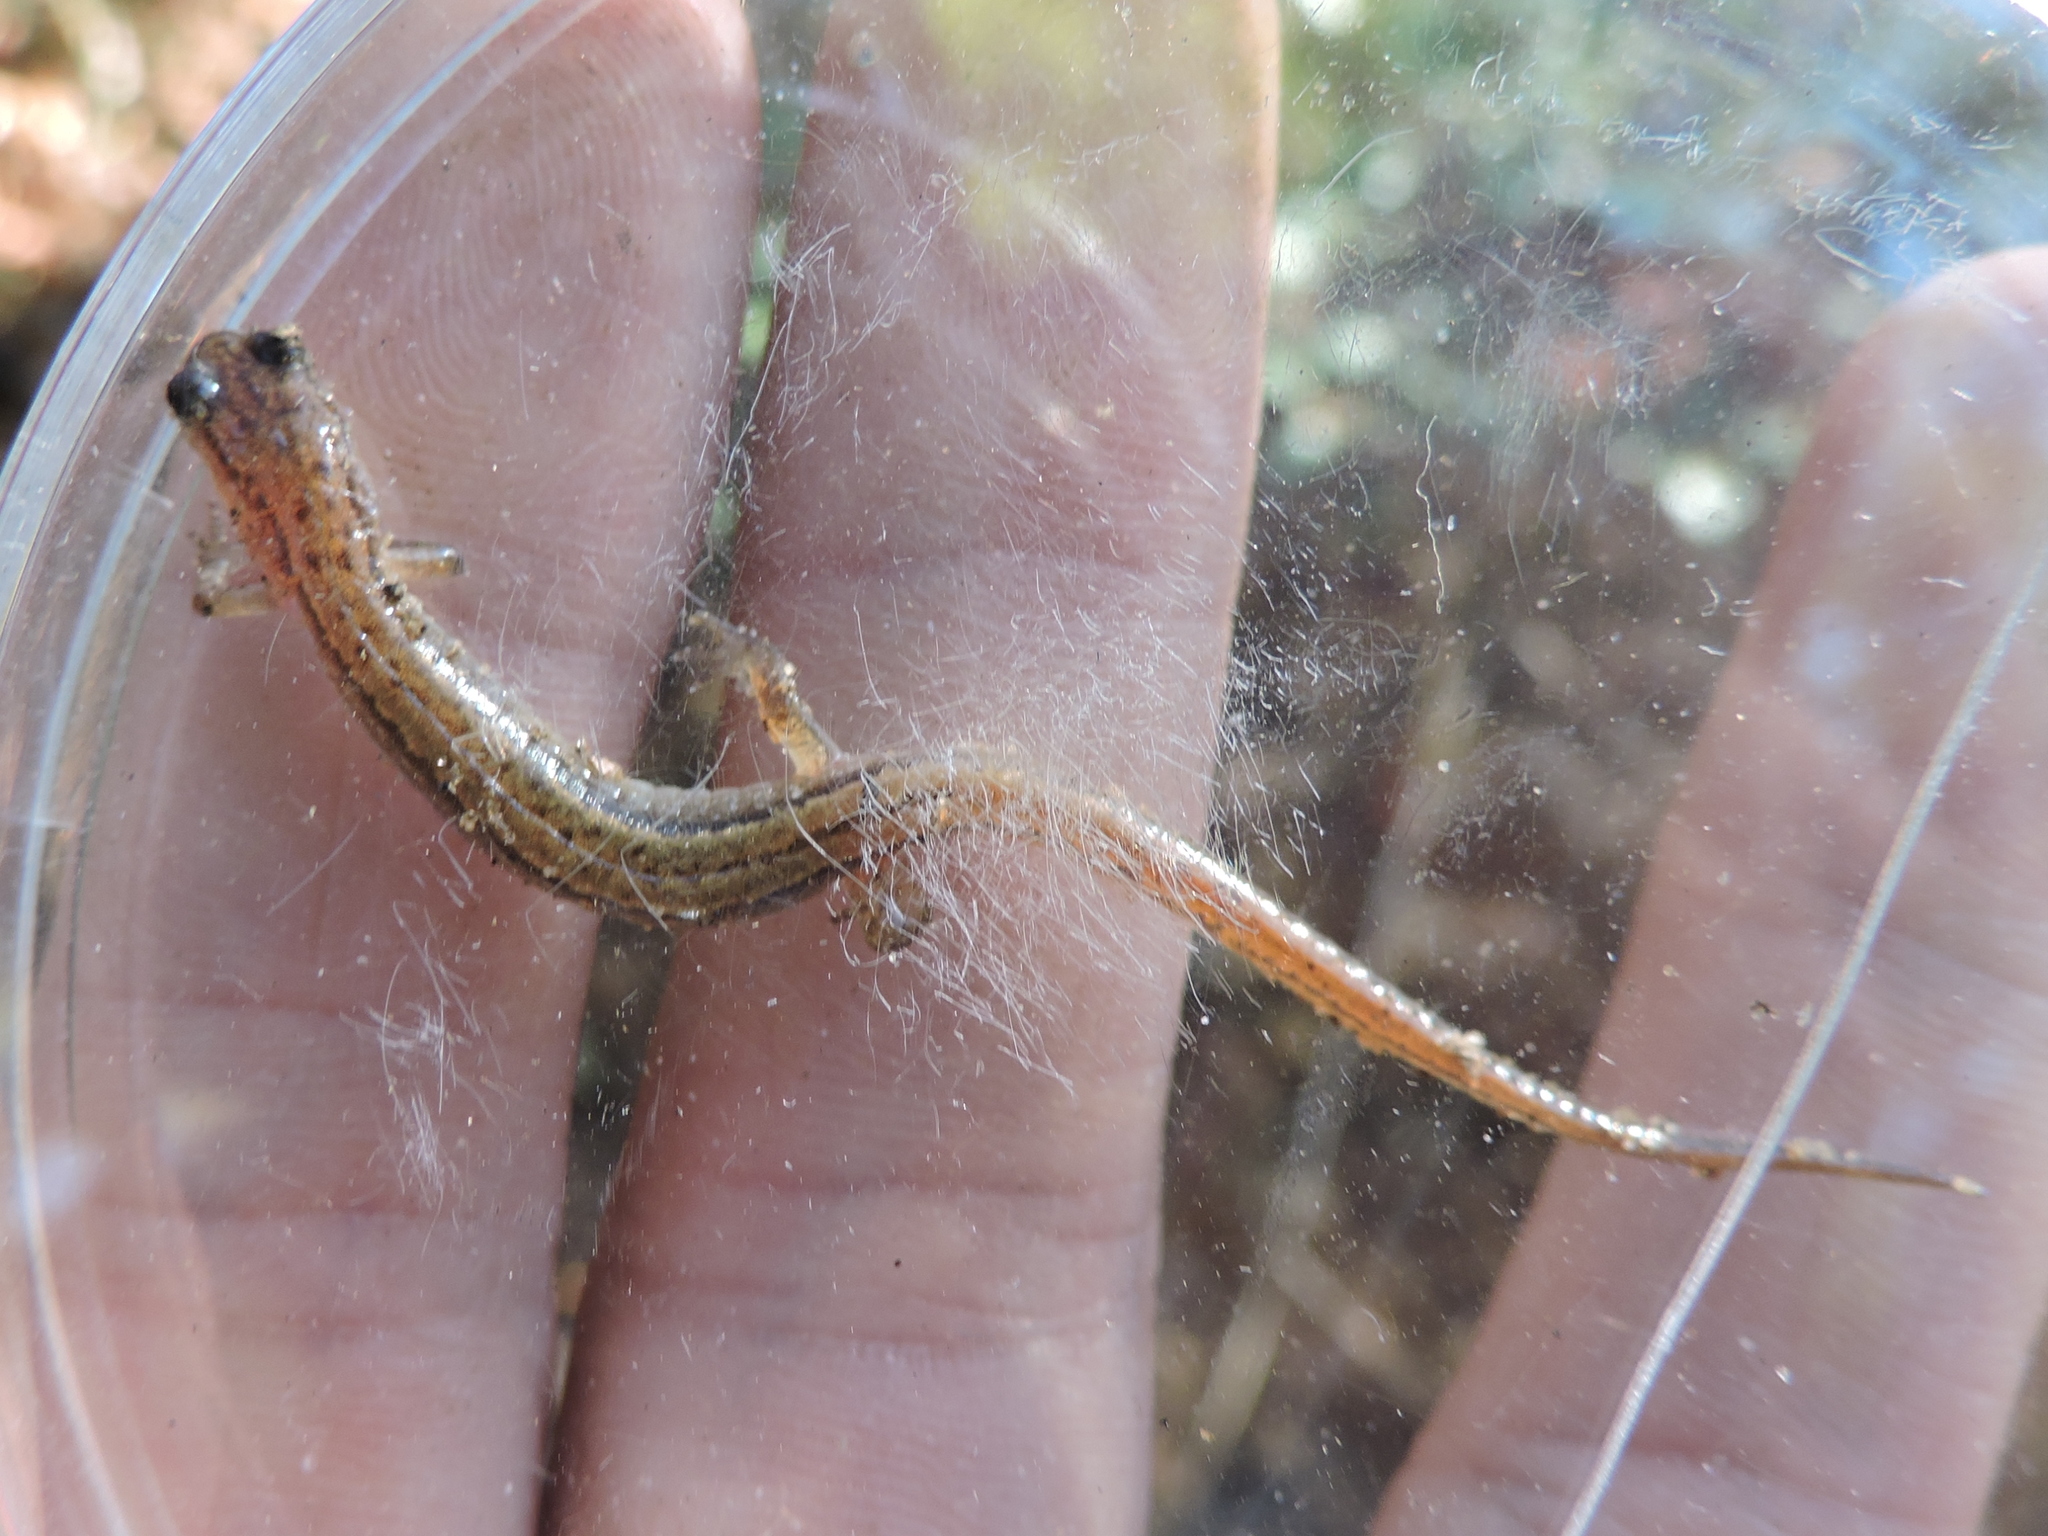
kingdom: Animalia
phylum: Chordata
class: Amphibia
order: Caudata
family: Plethodontidae
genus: Eurycea
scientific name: Eurycea paludicola
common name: Western dwarf salamander
